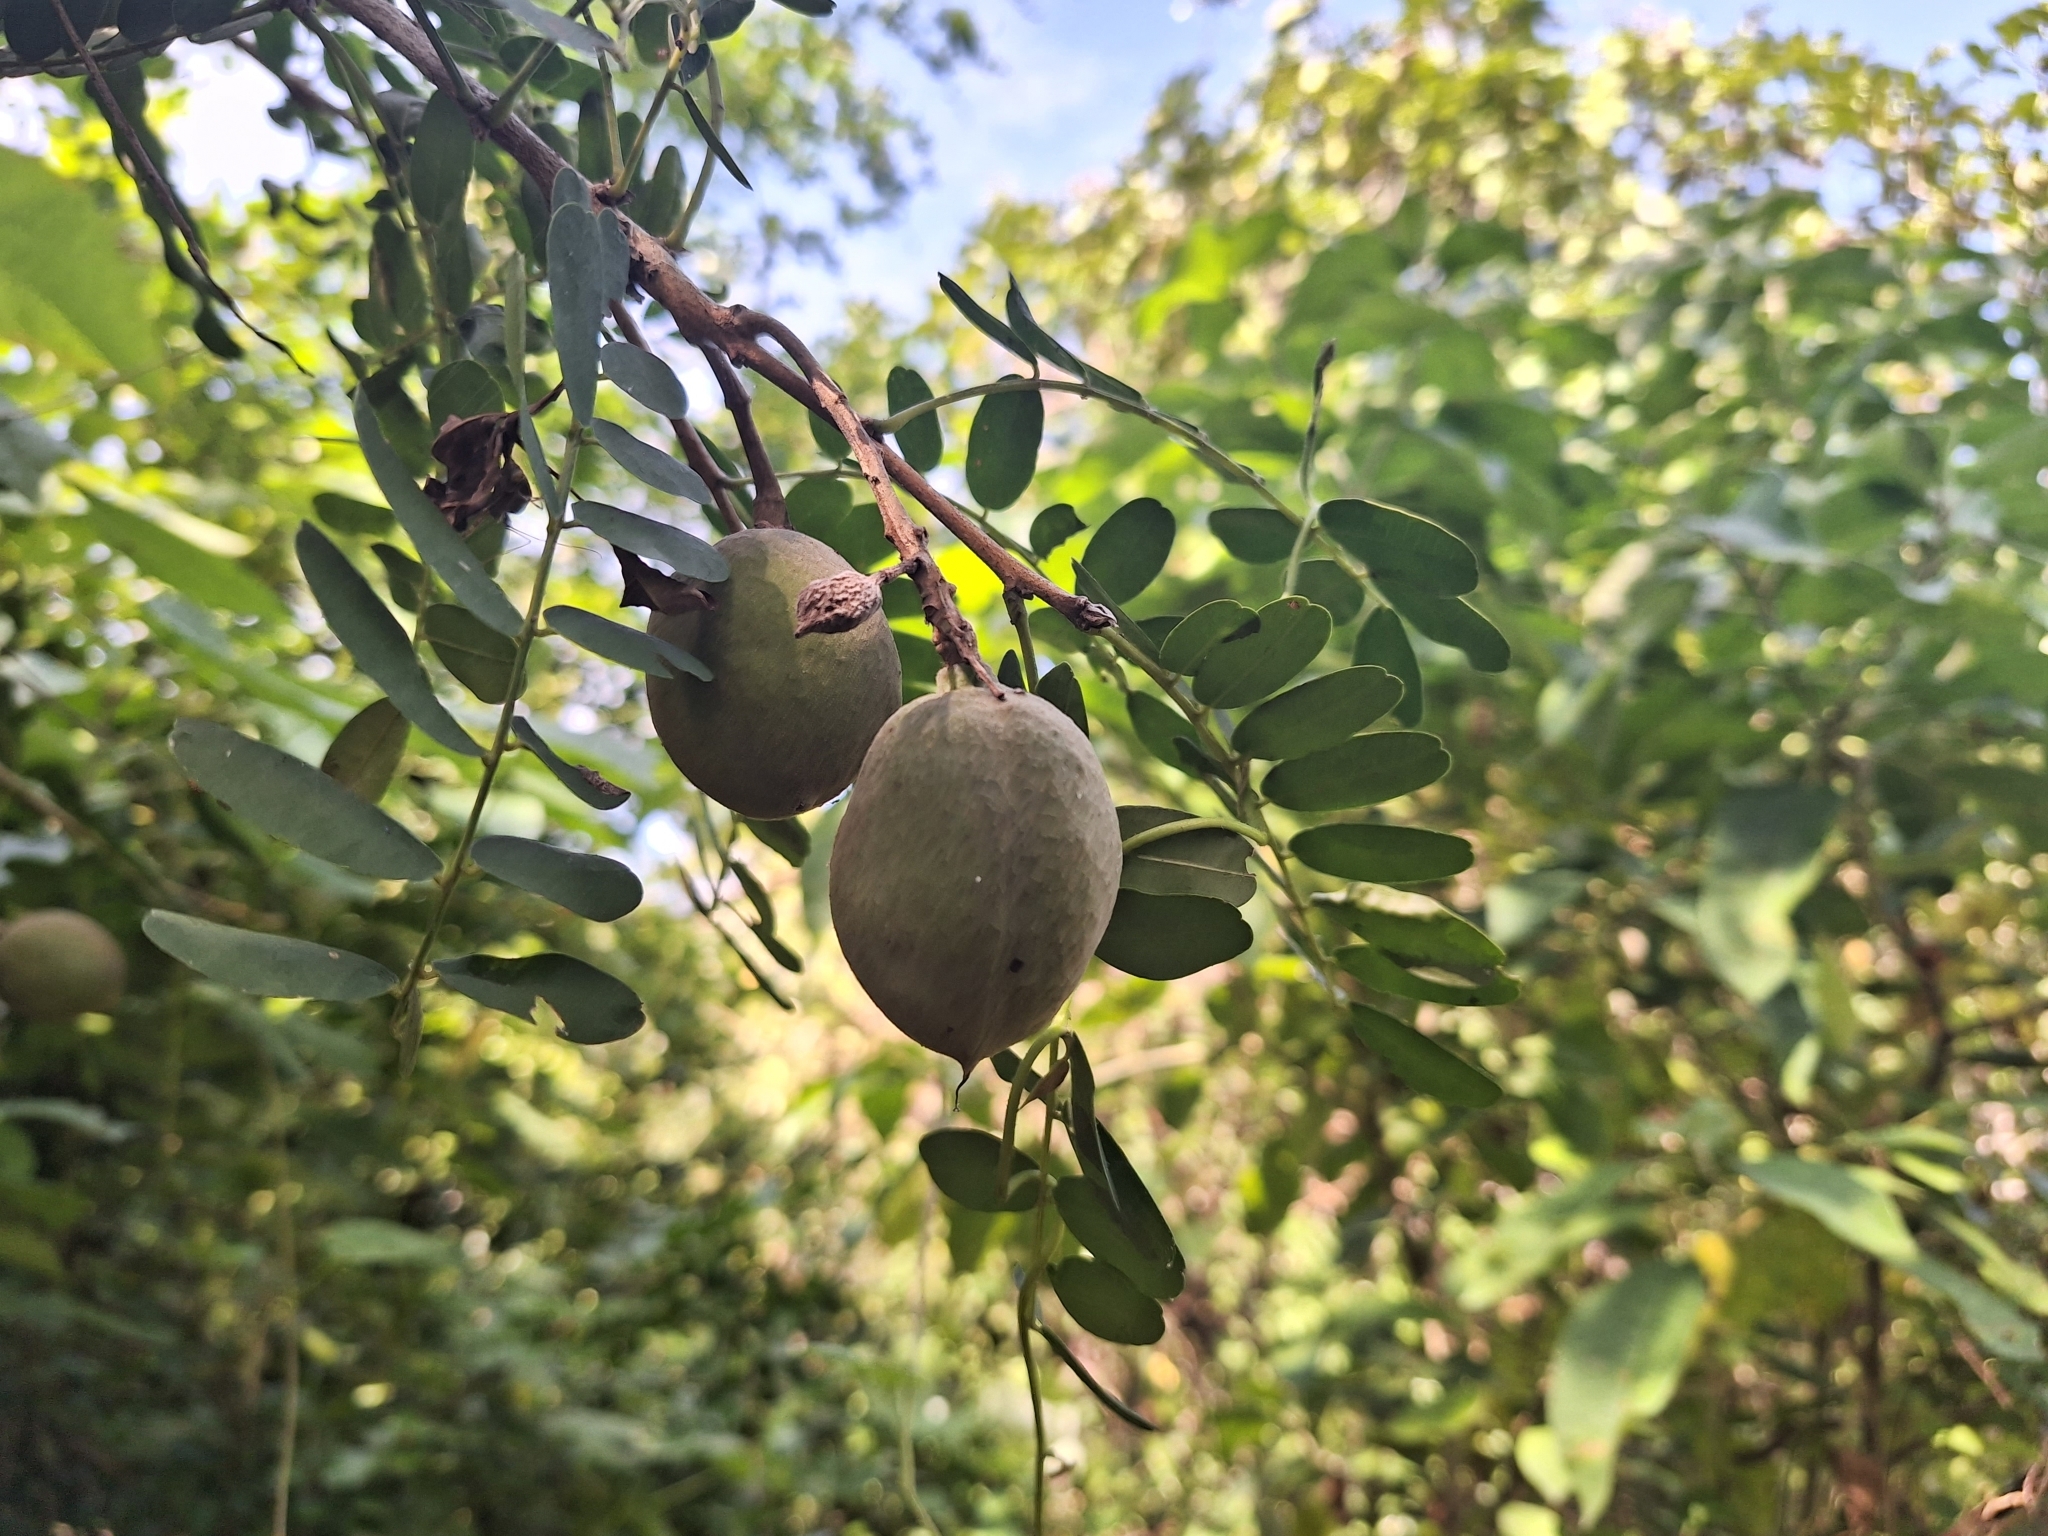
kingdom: Plantae
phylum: Tracheophyta
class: Magnoliopsida
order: Fabales
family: Fabaceae
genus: Geoffroea
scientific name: Geoffroea spinosa
